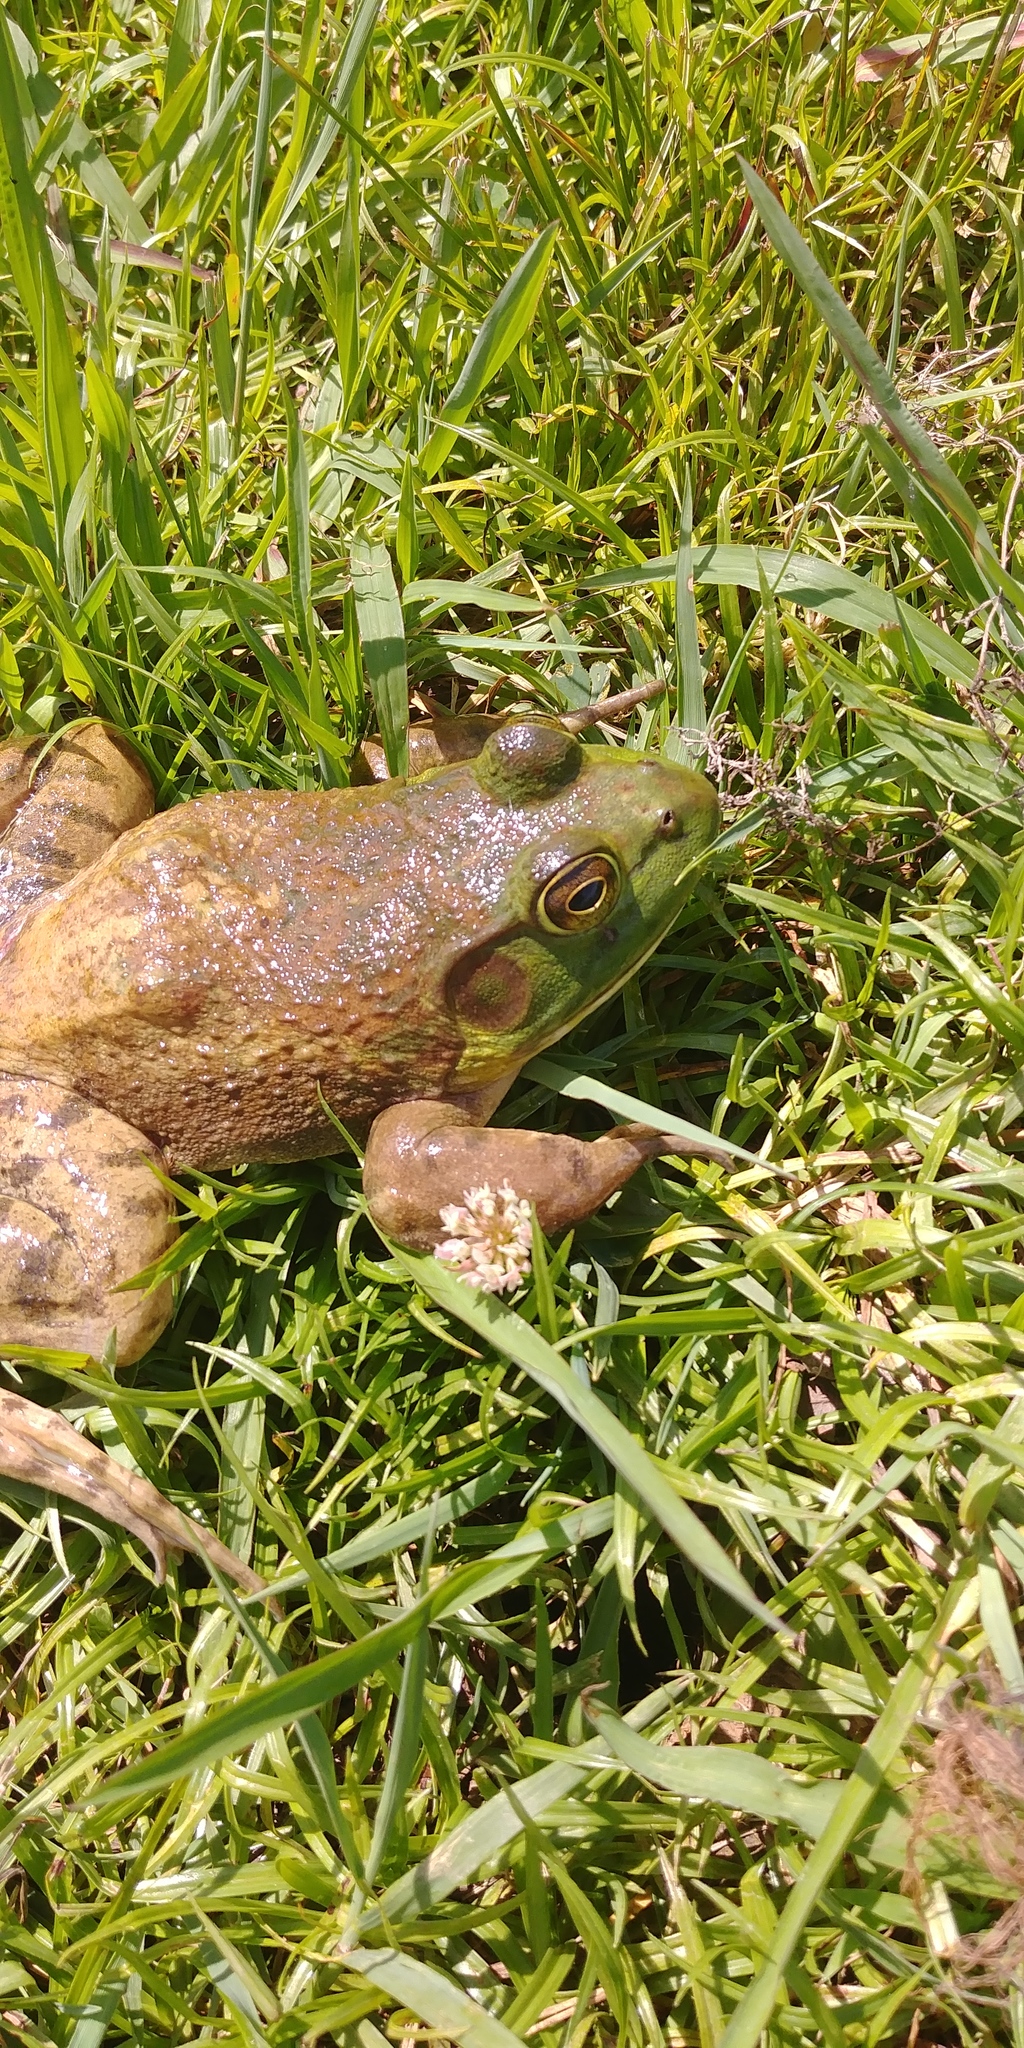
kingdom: Animalia
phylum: Chordata
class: Amphibia
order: Anura
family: Ranidae
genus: Lithobates
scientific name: Lithobates catesbeianus
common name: American bullfrog
